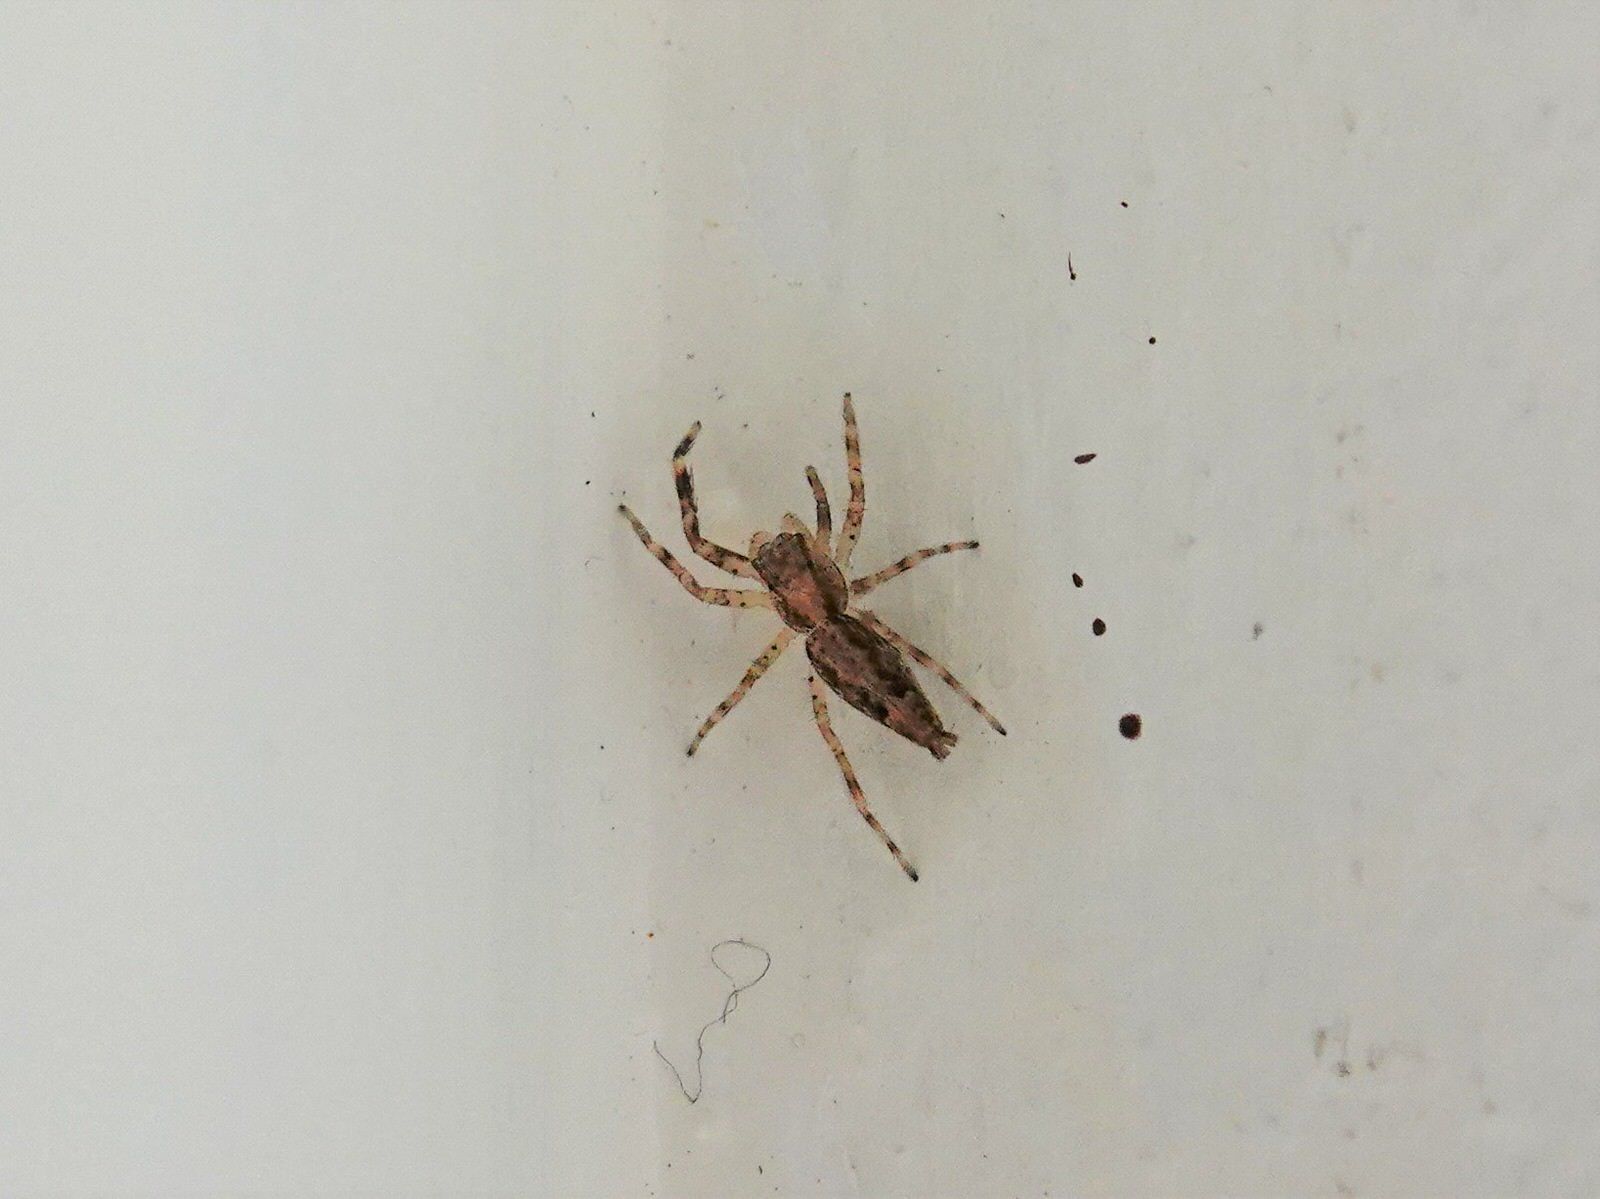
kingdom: Animalia
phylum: Arthropoda
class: Arachnida
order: Araneae
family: Salticidae
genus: Helpis
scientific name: Helpis minitabunda
